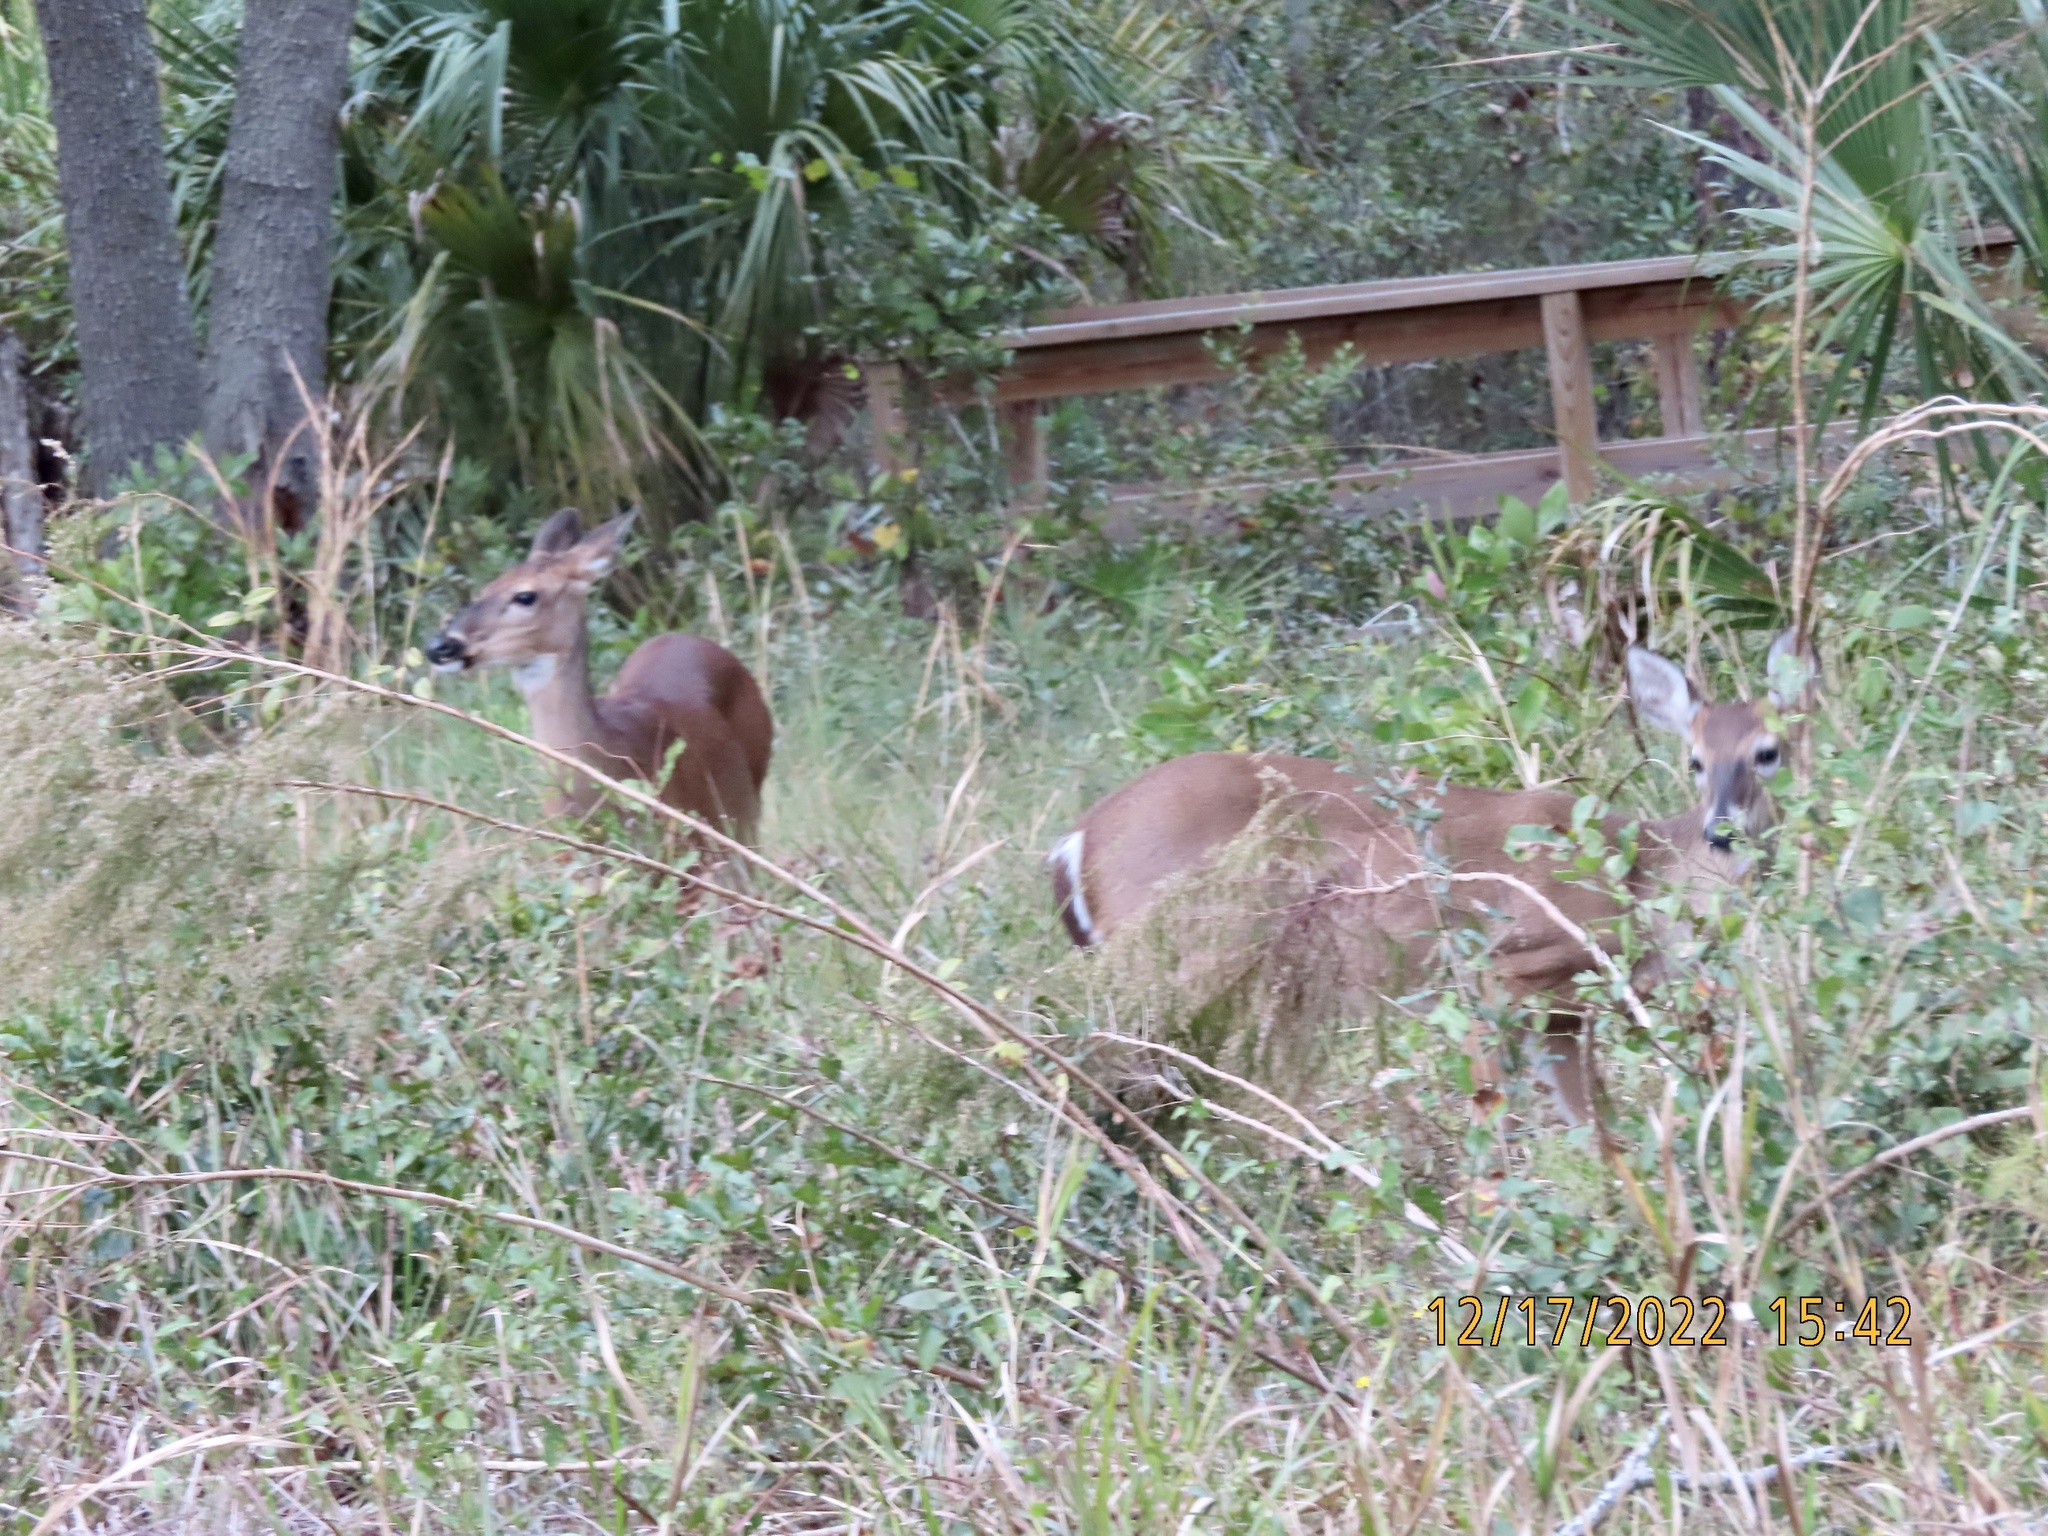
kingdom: Animalia
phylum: Chordata
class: Mammalia
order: Artiodactyla
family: Cervidae
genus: Odocoileus
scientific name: Odocoileus virginianus
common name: White-tailed deer
